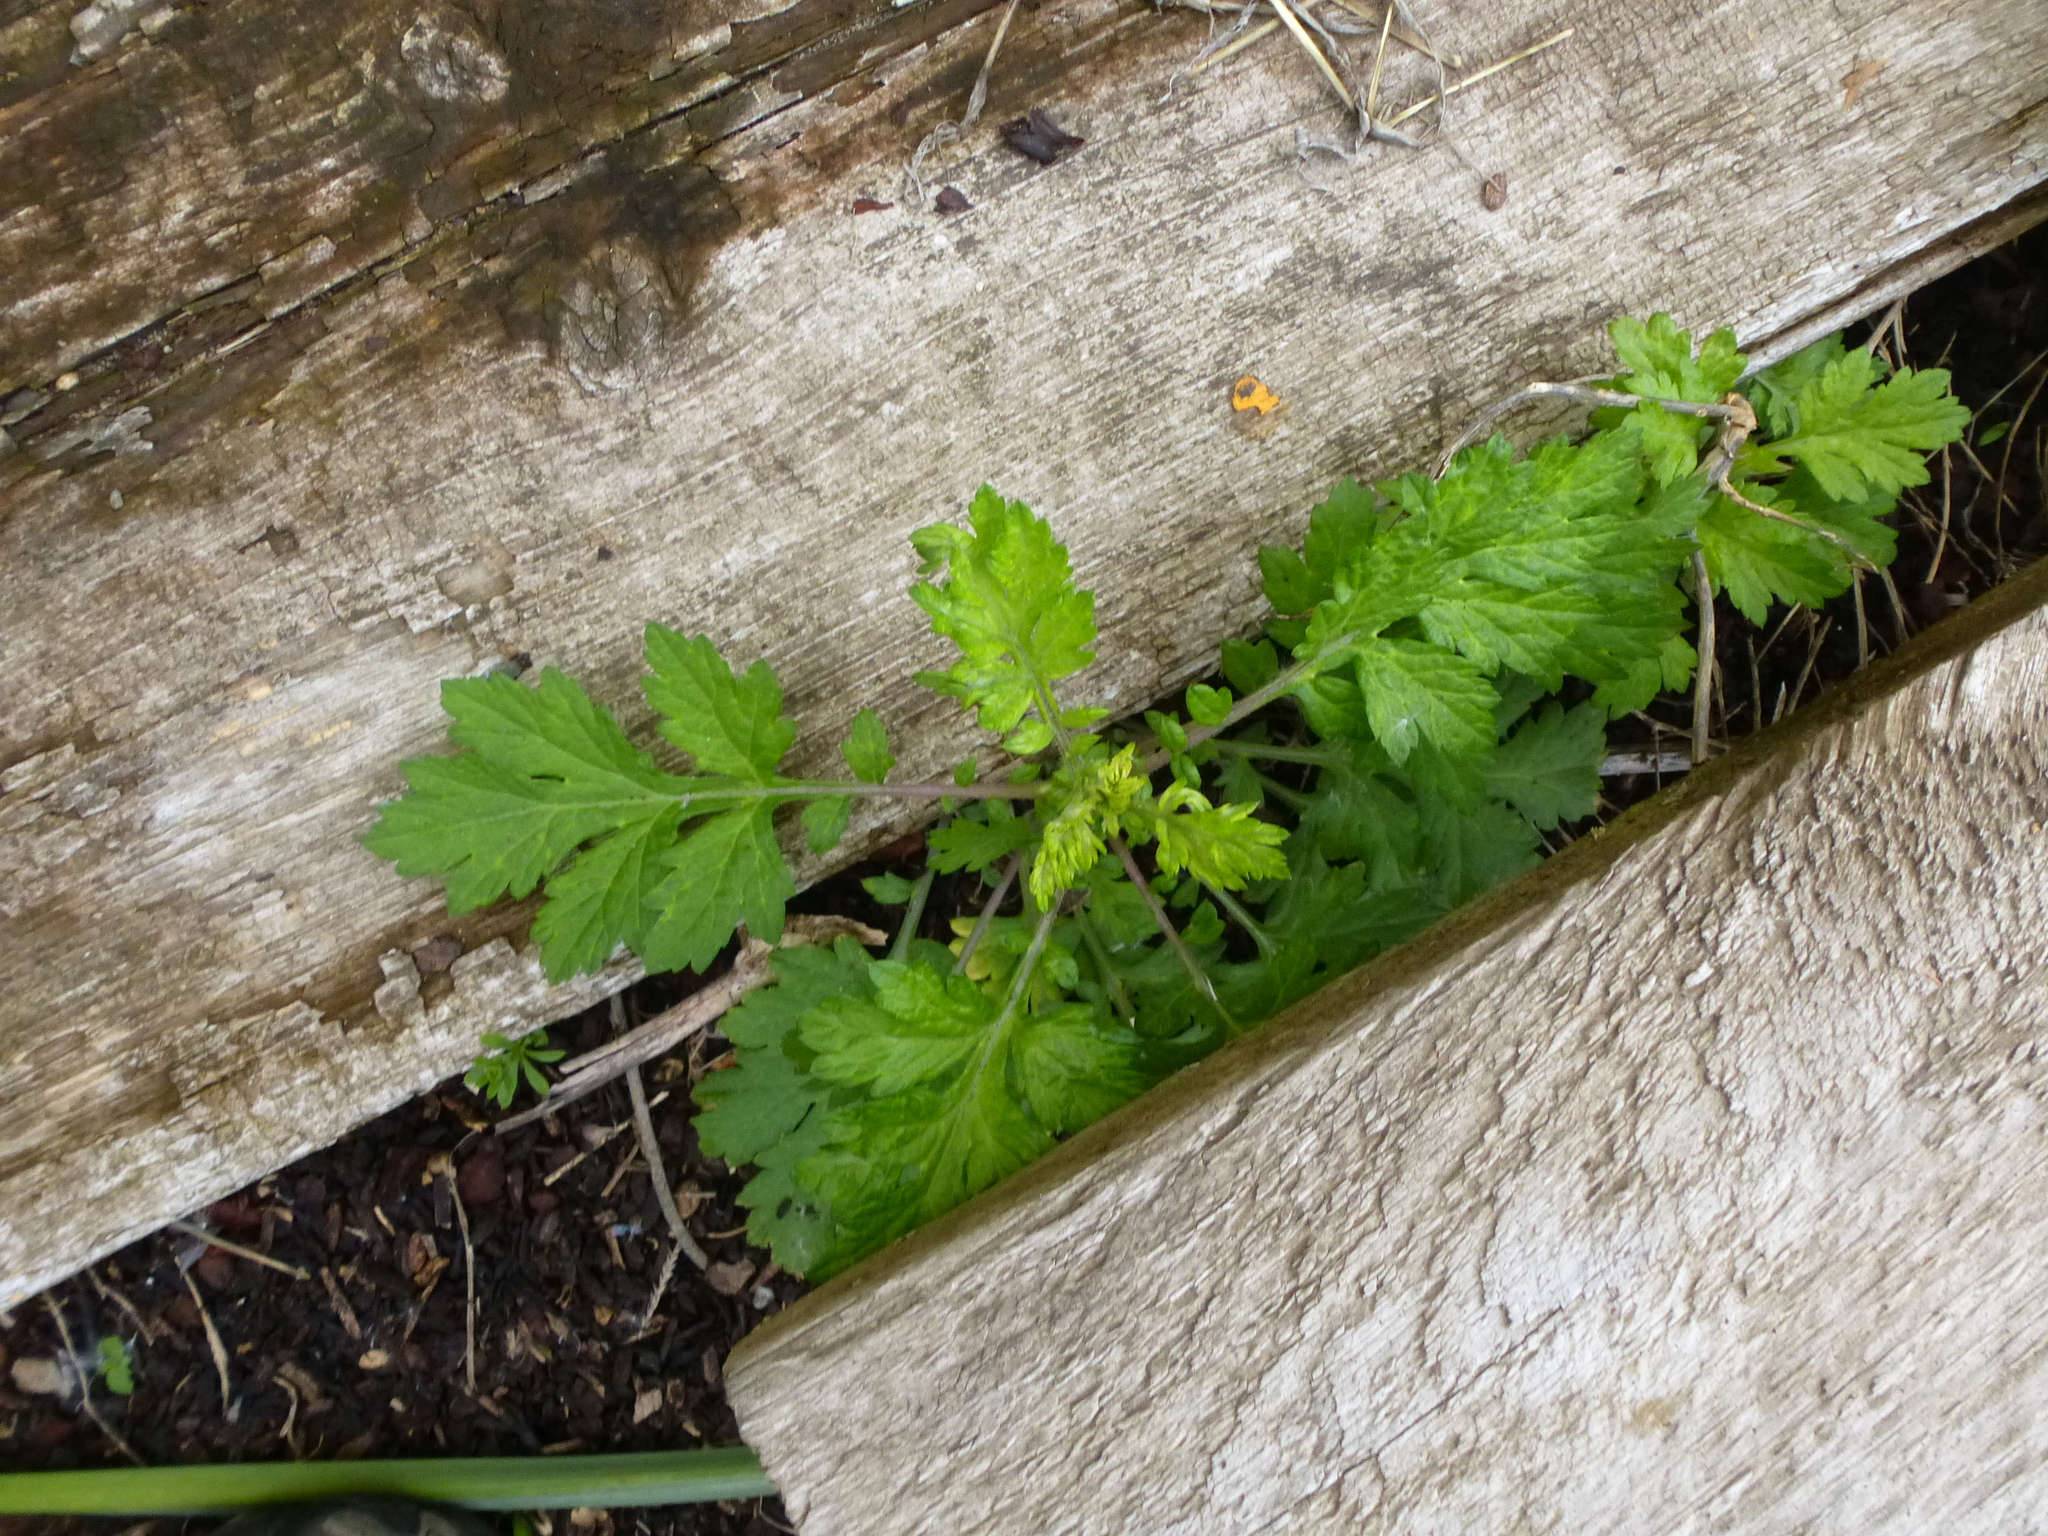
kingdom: Plantae
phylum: Tracheophyta
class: Magnoliopsida
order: Asterales
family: Asteraceae
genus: Artemisia
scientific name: Artemisia vulgaris
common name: Mugwort
